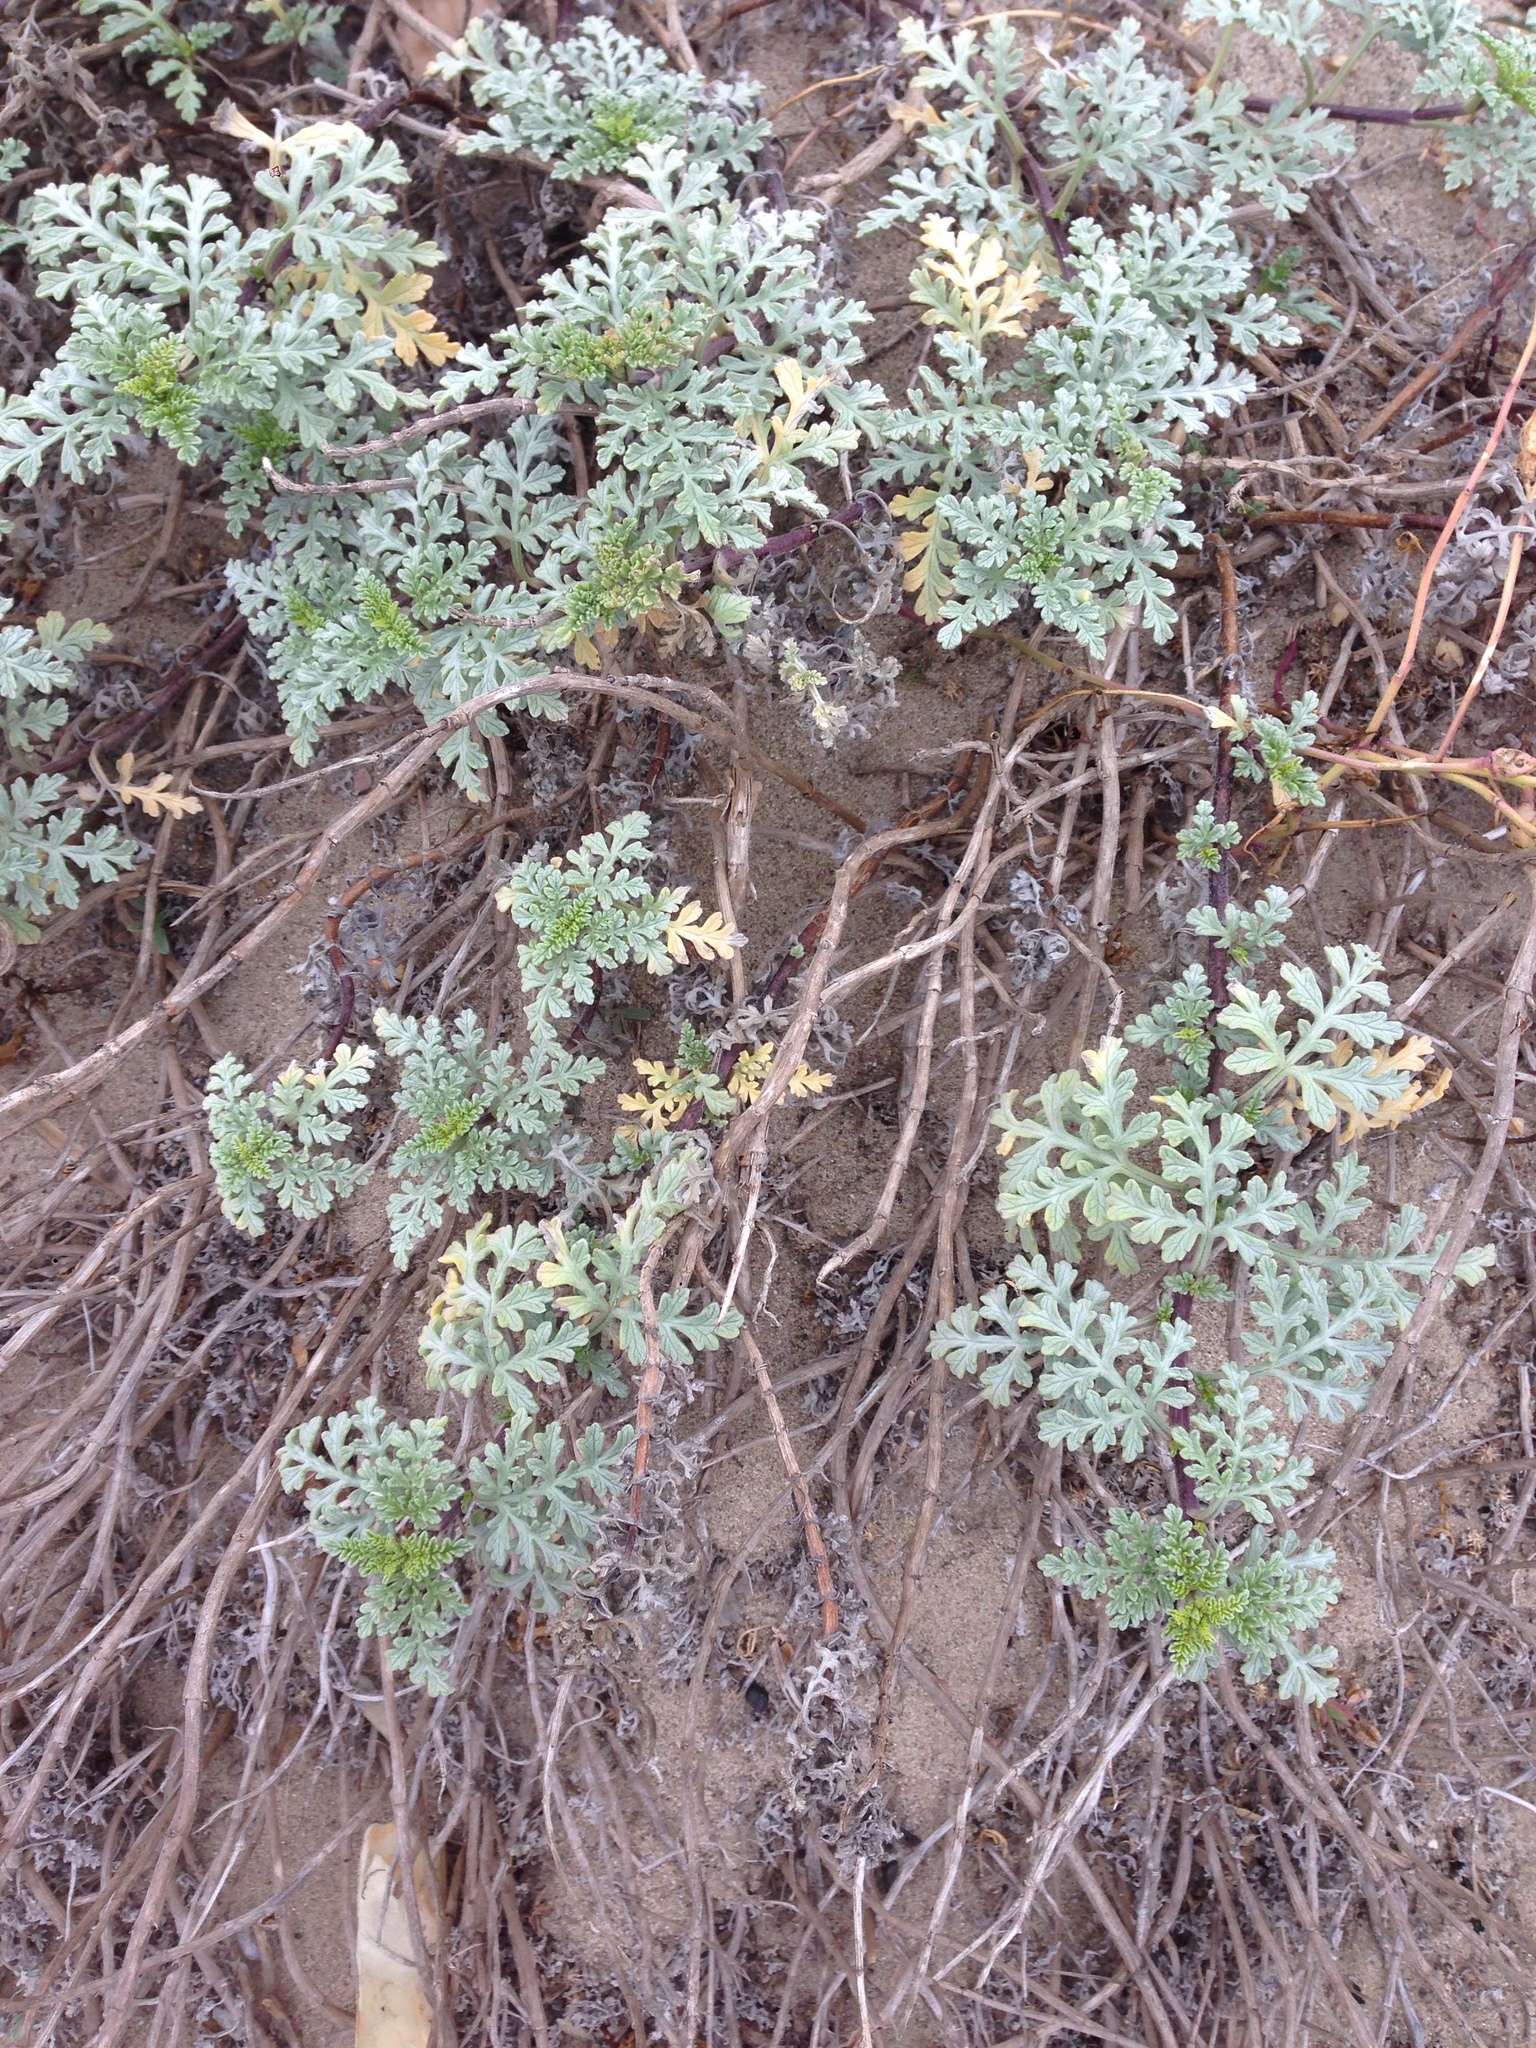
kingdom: Plantae
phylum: Tracheophyta
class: Magnoliopsida
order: Asterales
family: Asteraceae
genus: Ambrosia
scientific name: Ambrosia chamissonis
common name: Beachbur
